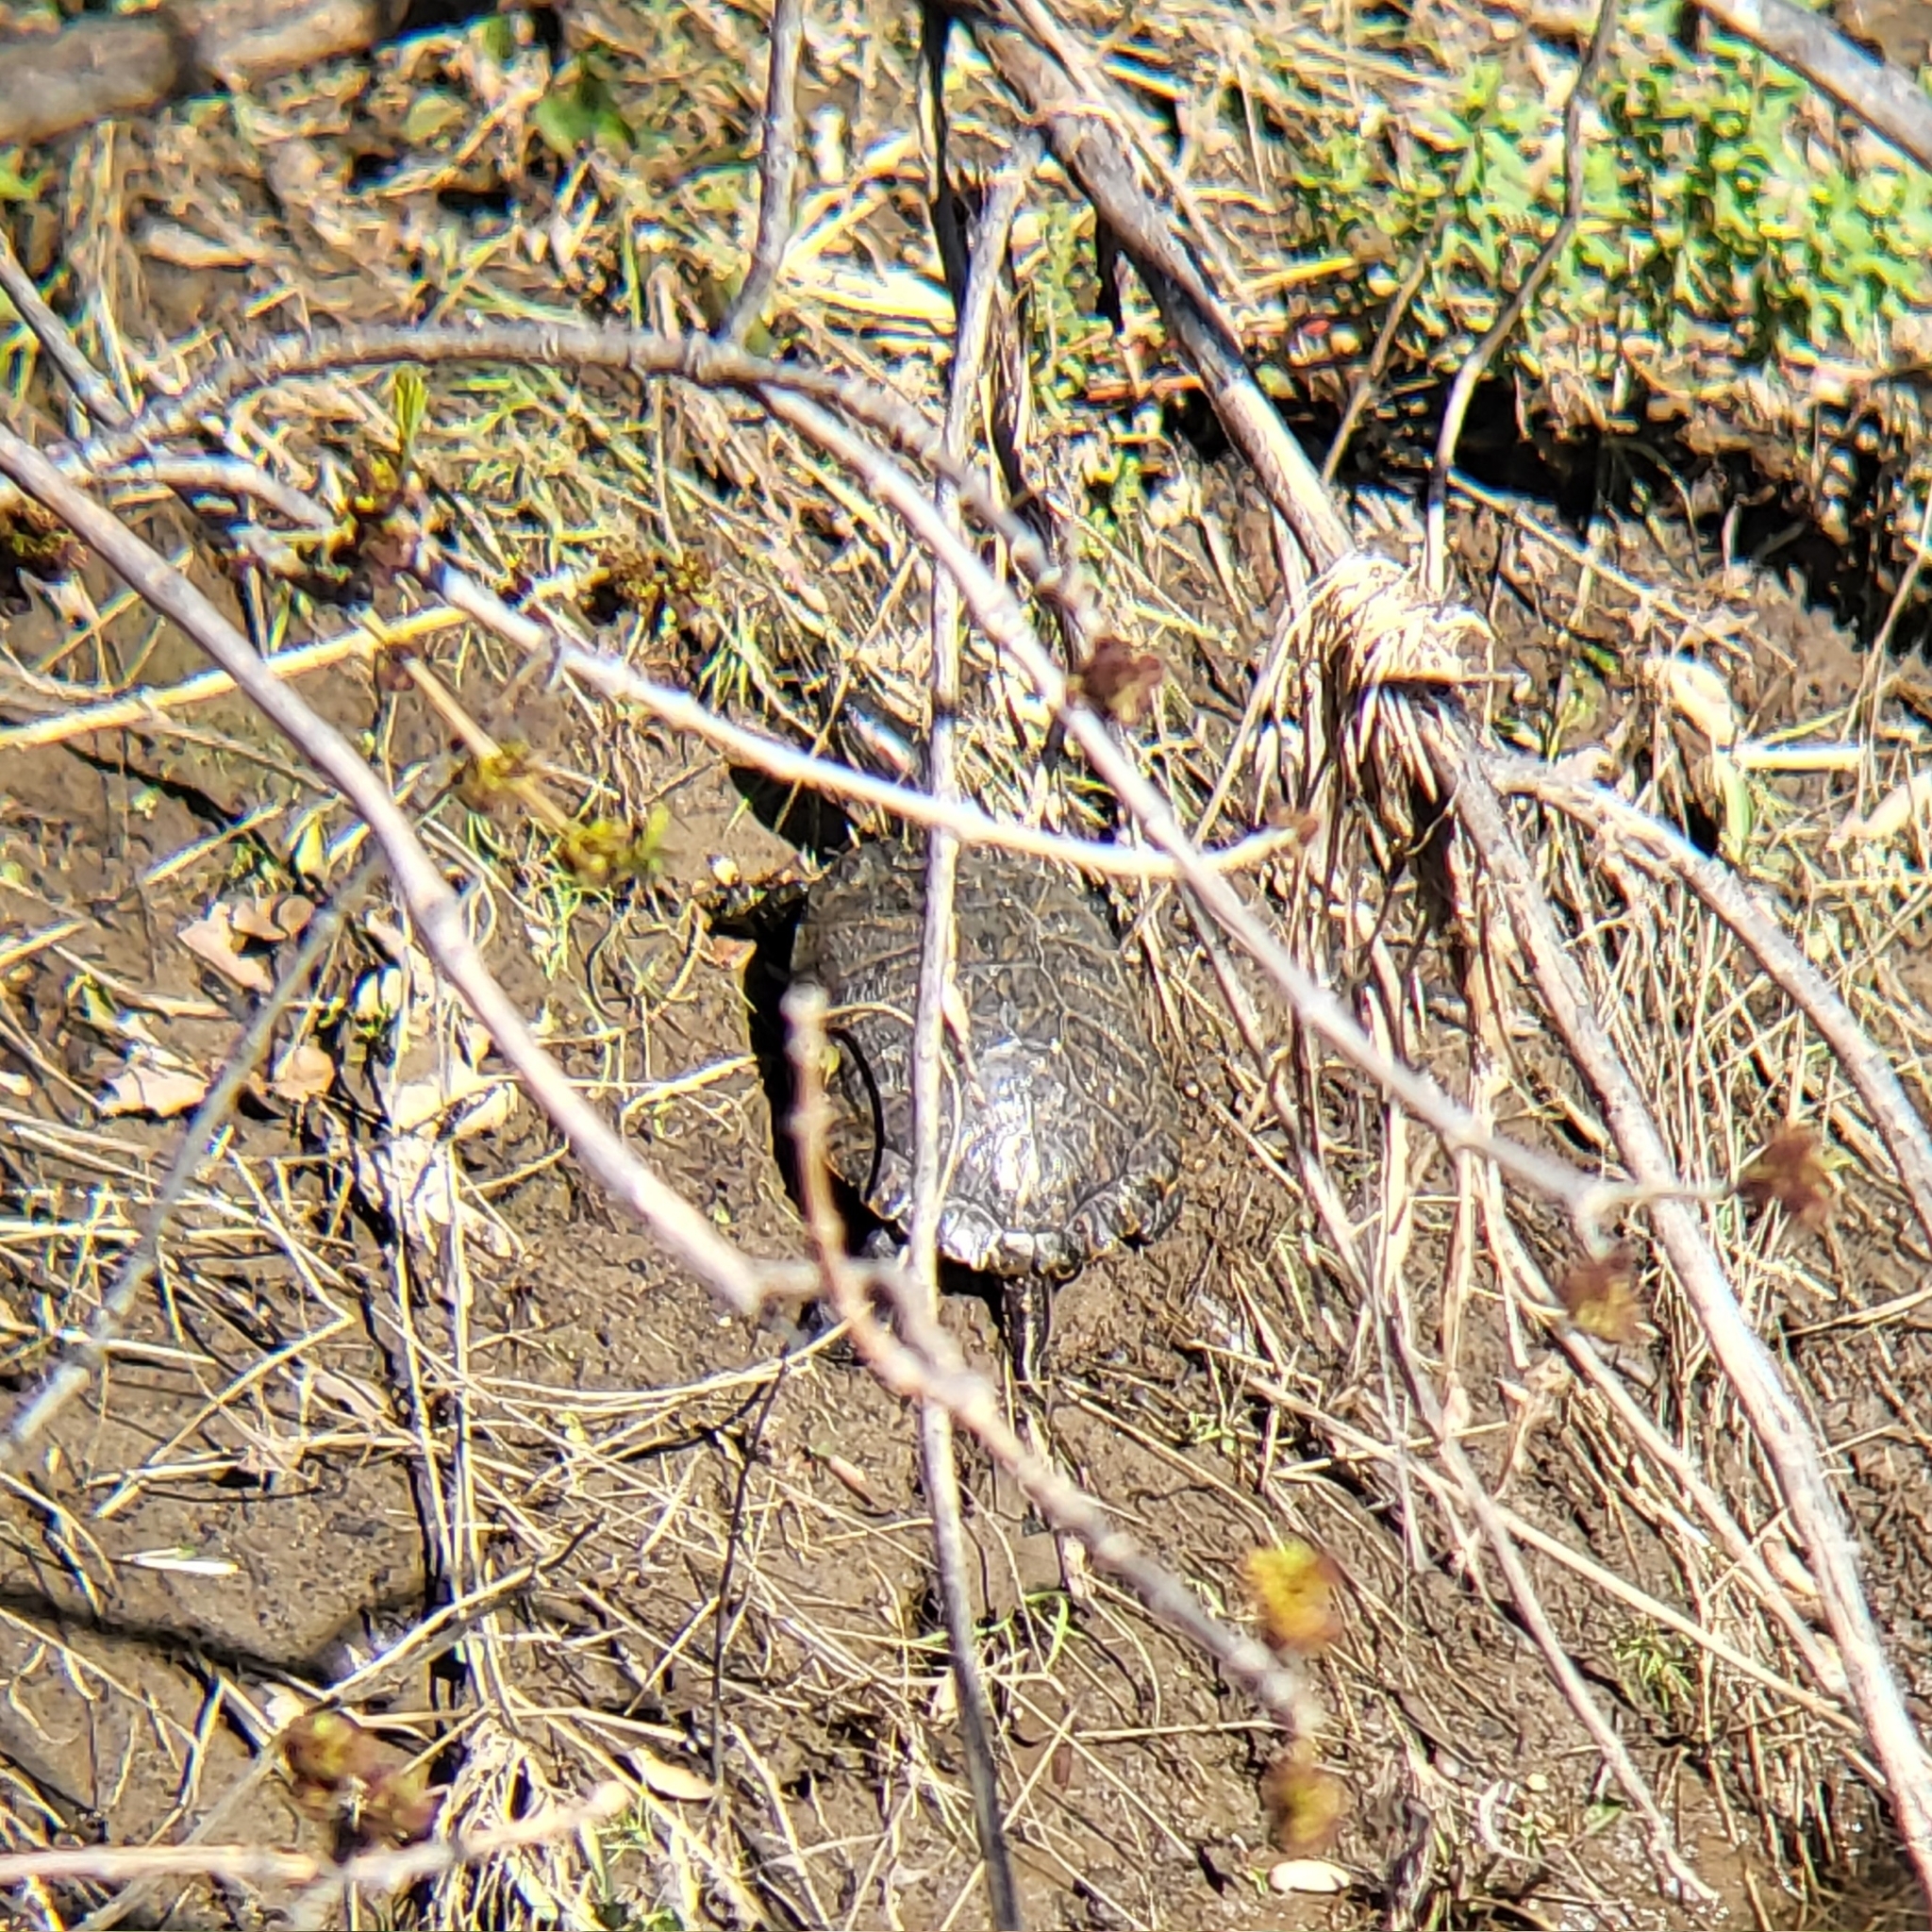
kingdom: Animalia
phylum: Chordata
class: Testudines
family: Emydidae
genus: Trachemys
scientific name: Trachemys scripta
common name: Slider
